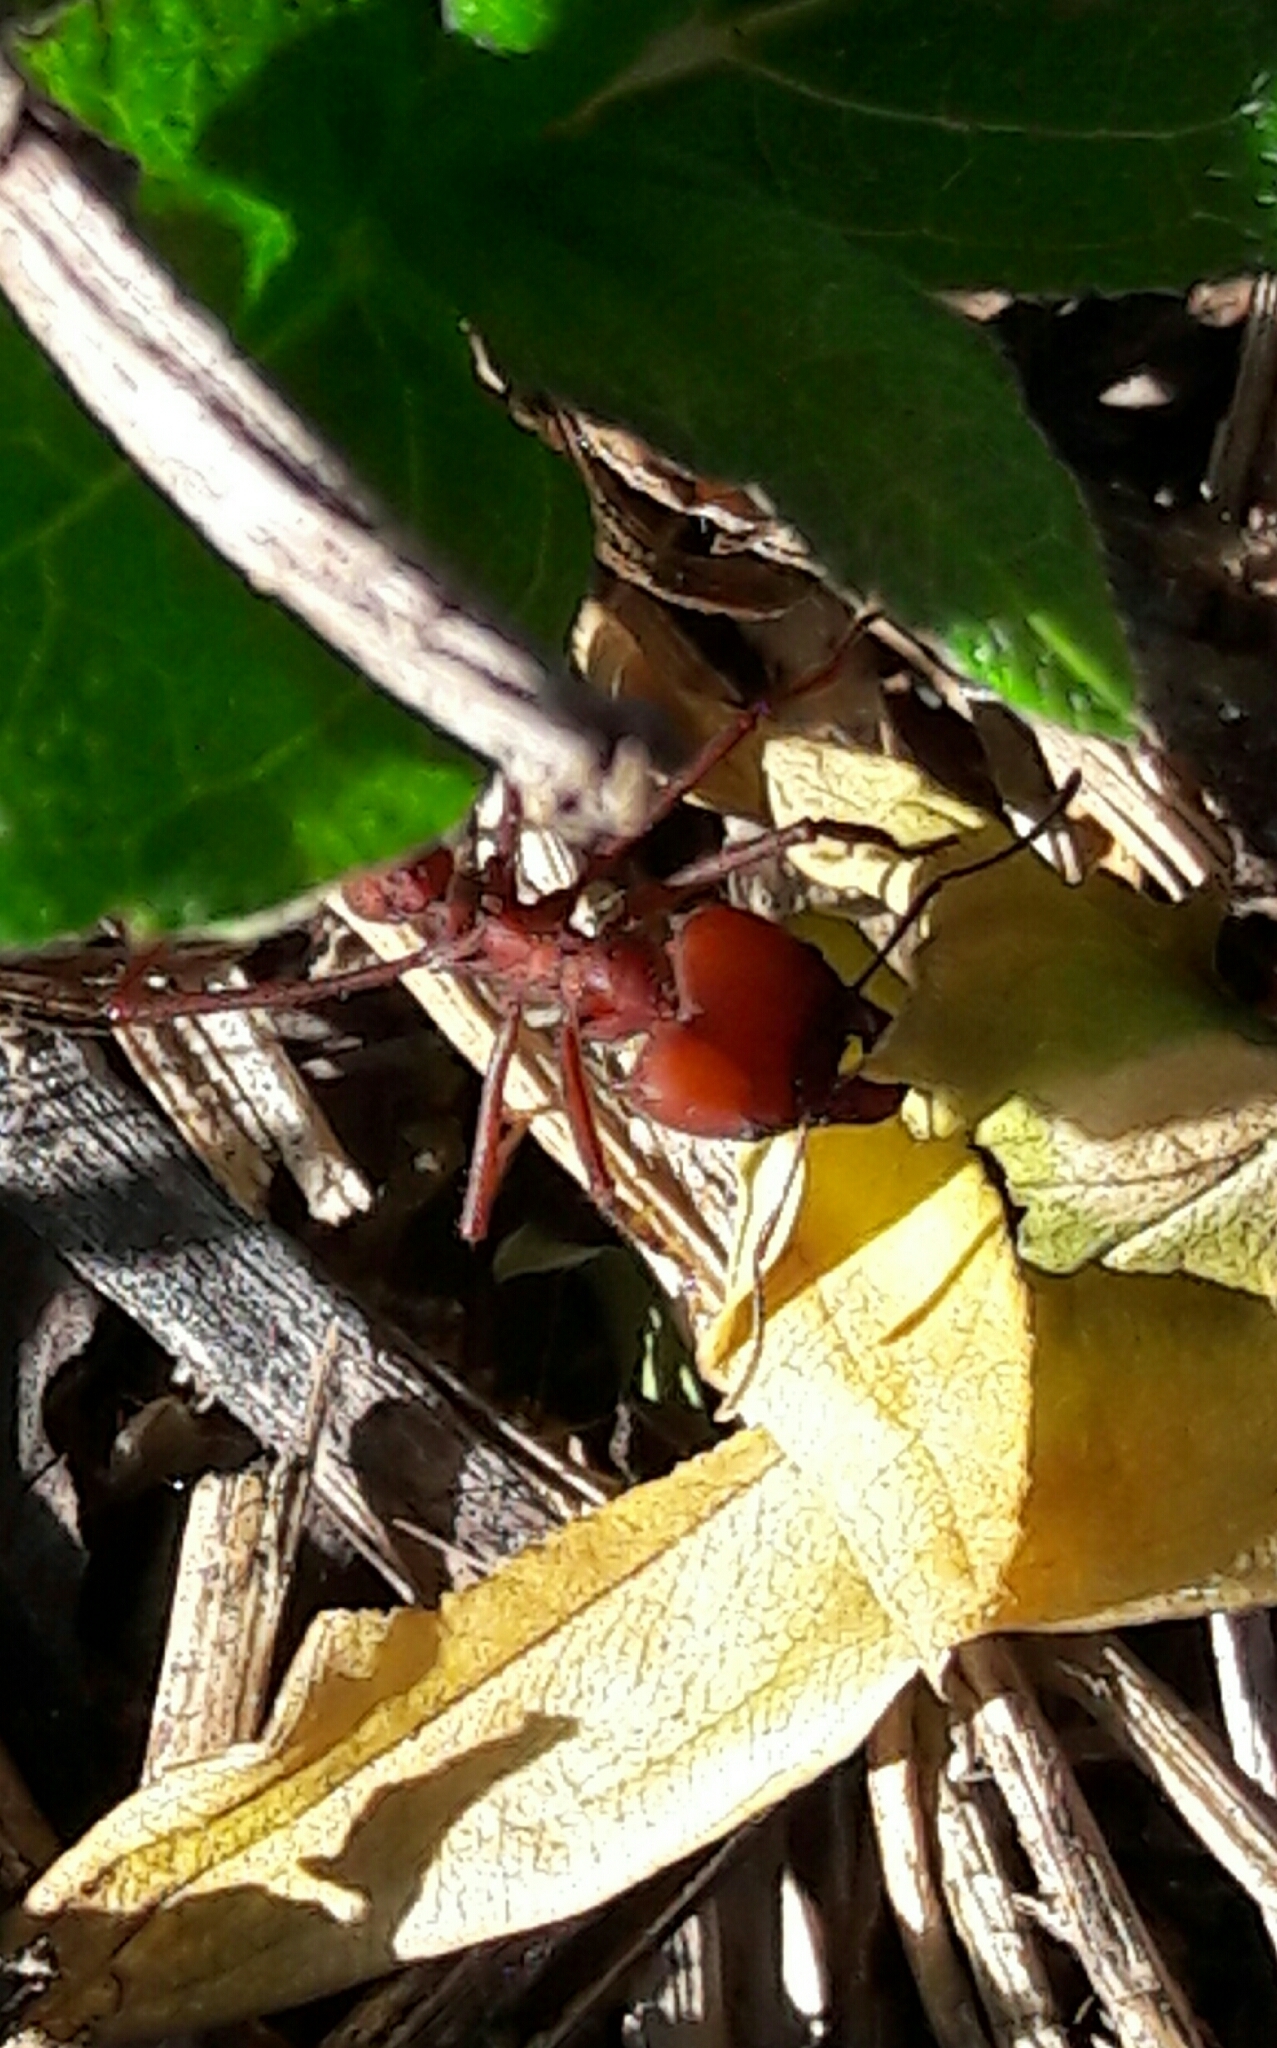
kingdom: Animalia
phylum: Arthropoda
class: Insecta
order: Hymenoptera
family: Formicidae
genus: Atta
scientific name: Atta sexdens
